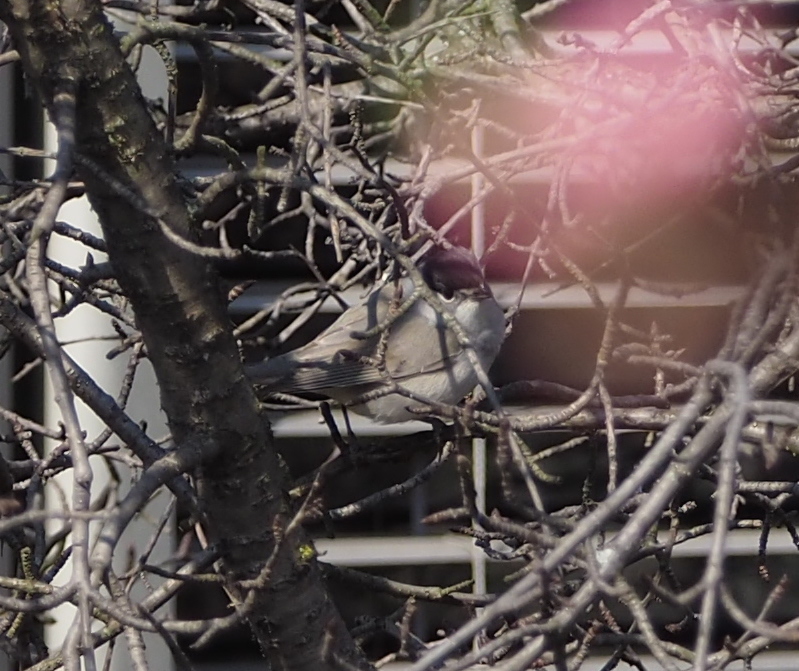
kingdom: Animalia
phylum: Chordata
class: Aves
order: Passeriformes
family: Sylviidae
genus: Sylvia
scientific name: Sylvia atricapilla
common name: Eurasian blackcap
